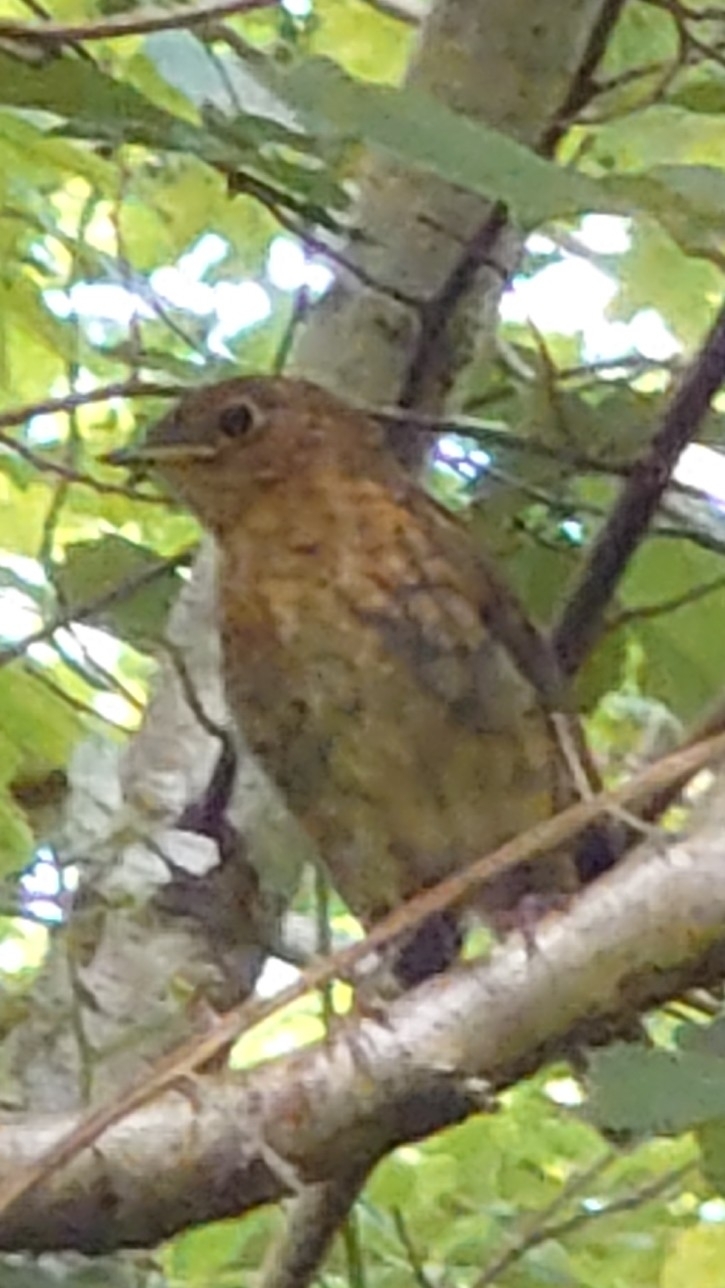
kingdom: Animalia
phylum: Chordata
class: Aves
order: Passeriformes
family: Muscicapidae
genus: Erithacus
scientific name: Erithacus rubecula
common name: European robin
